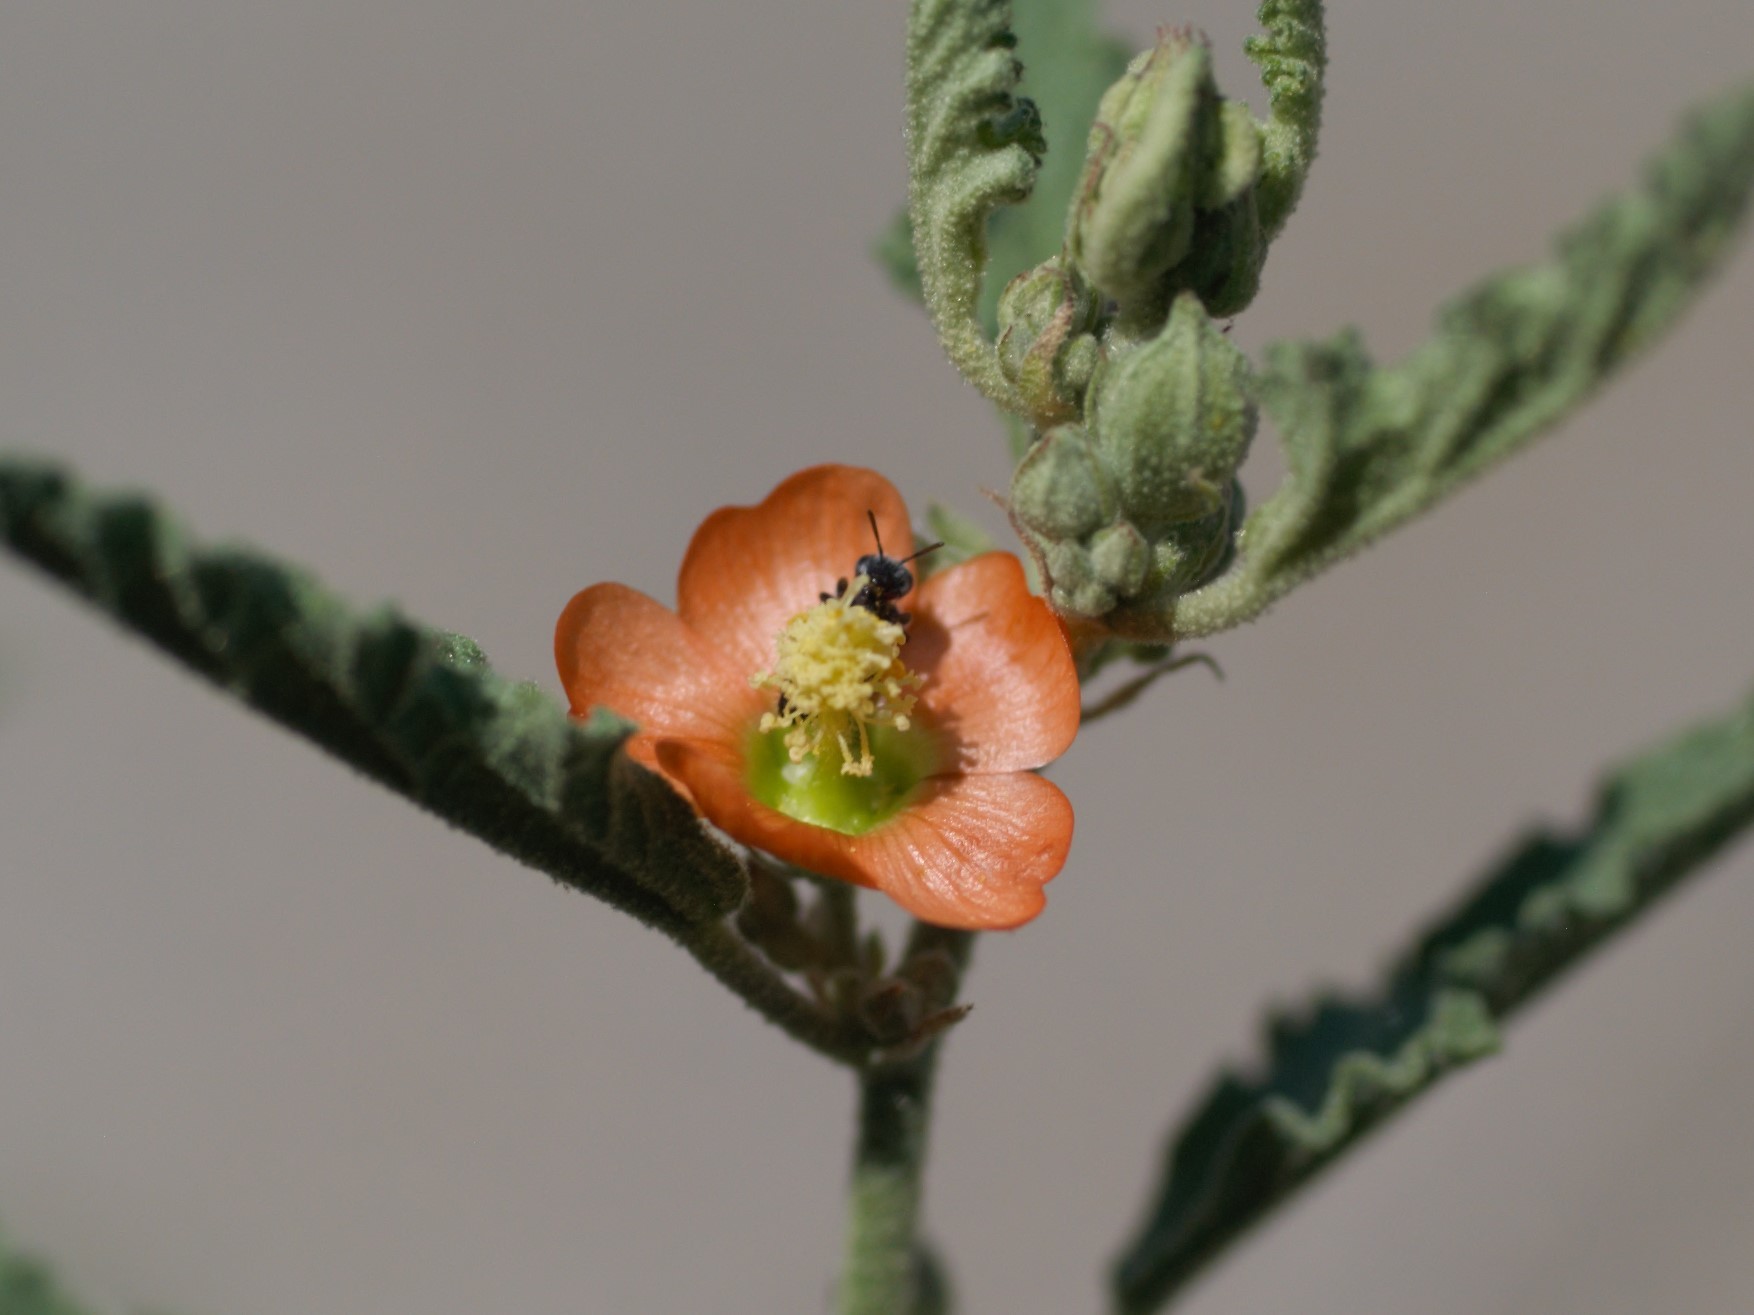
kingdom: Animalia
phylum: Arthropoda
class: Insecta
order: Hymenoptera
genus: Macroteropsis
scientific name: Macroteropsis
